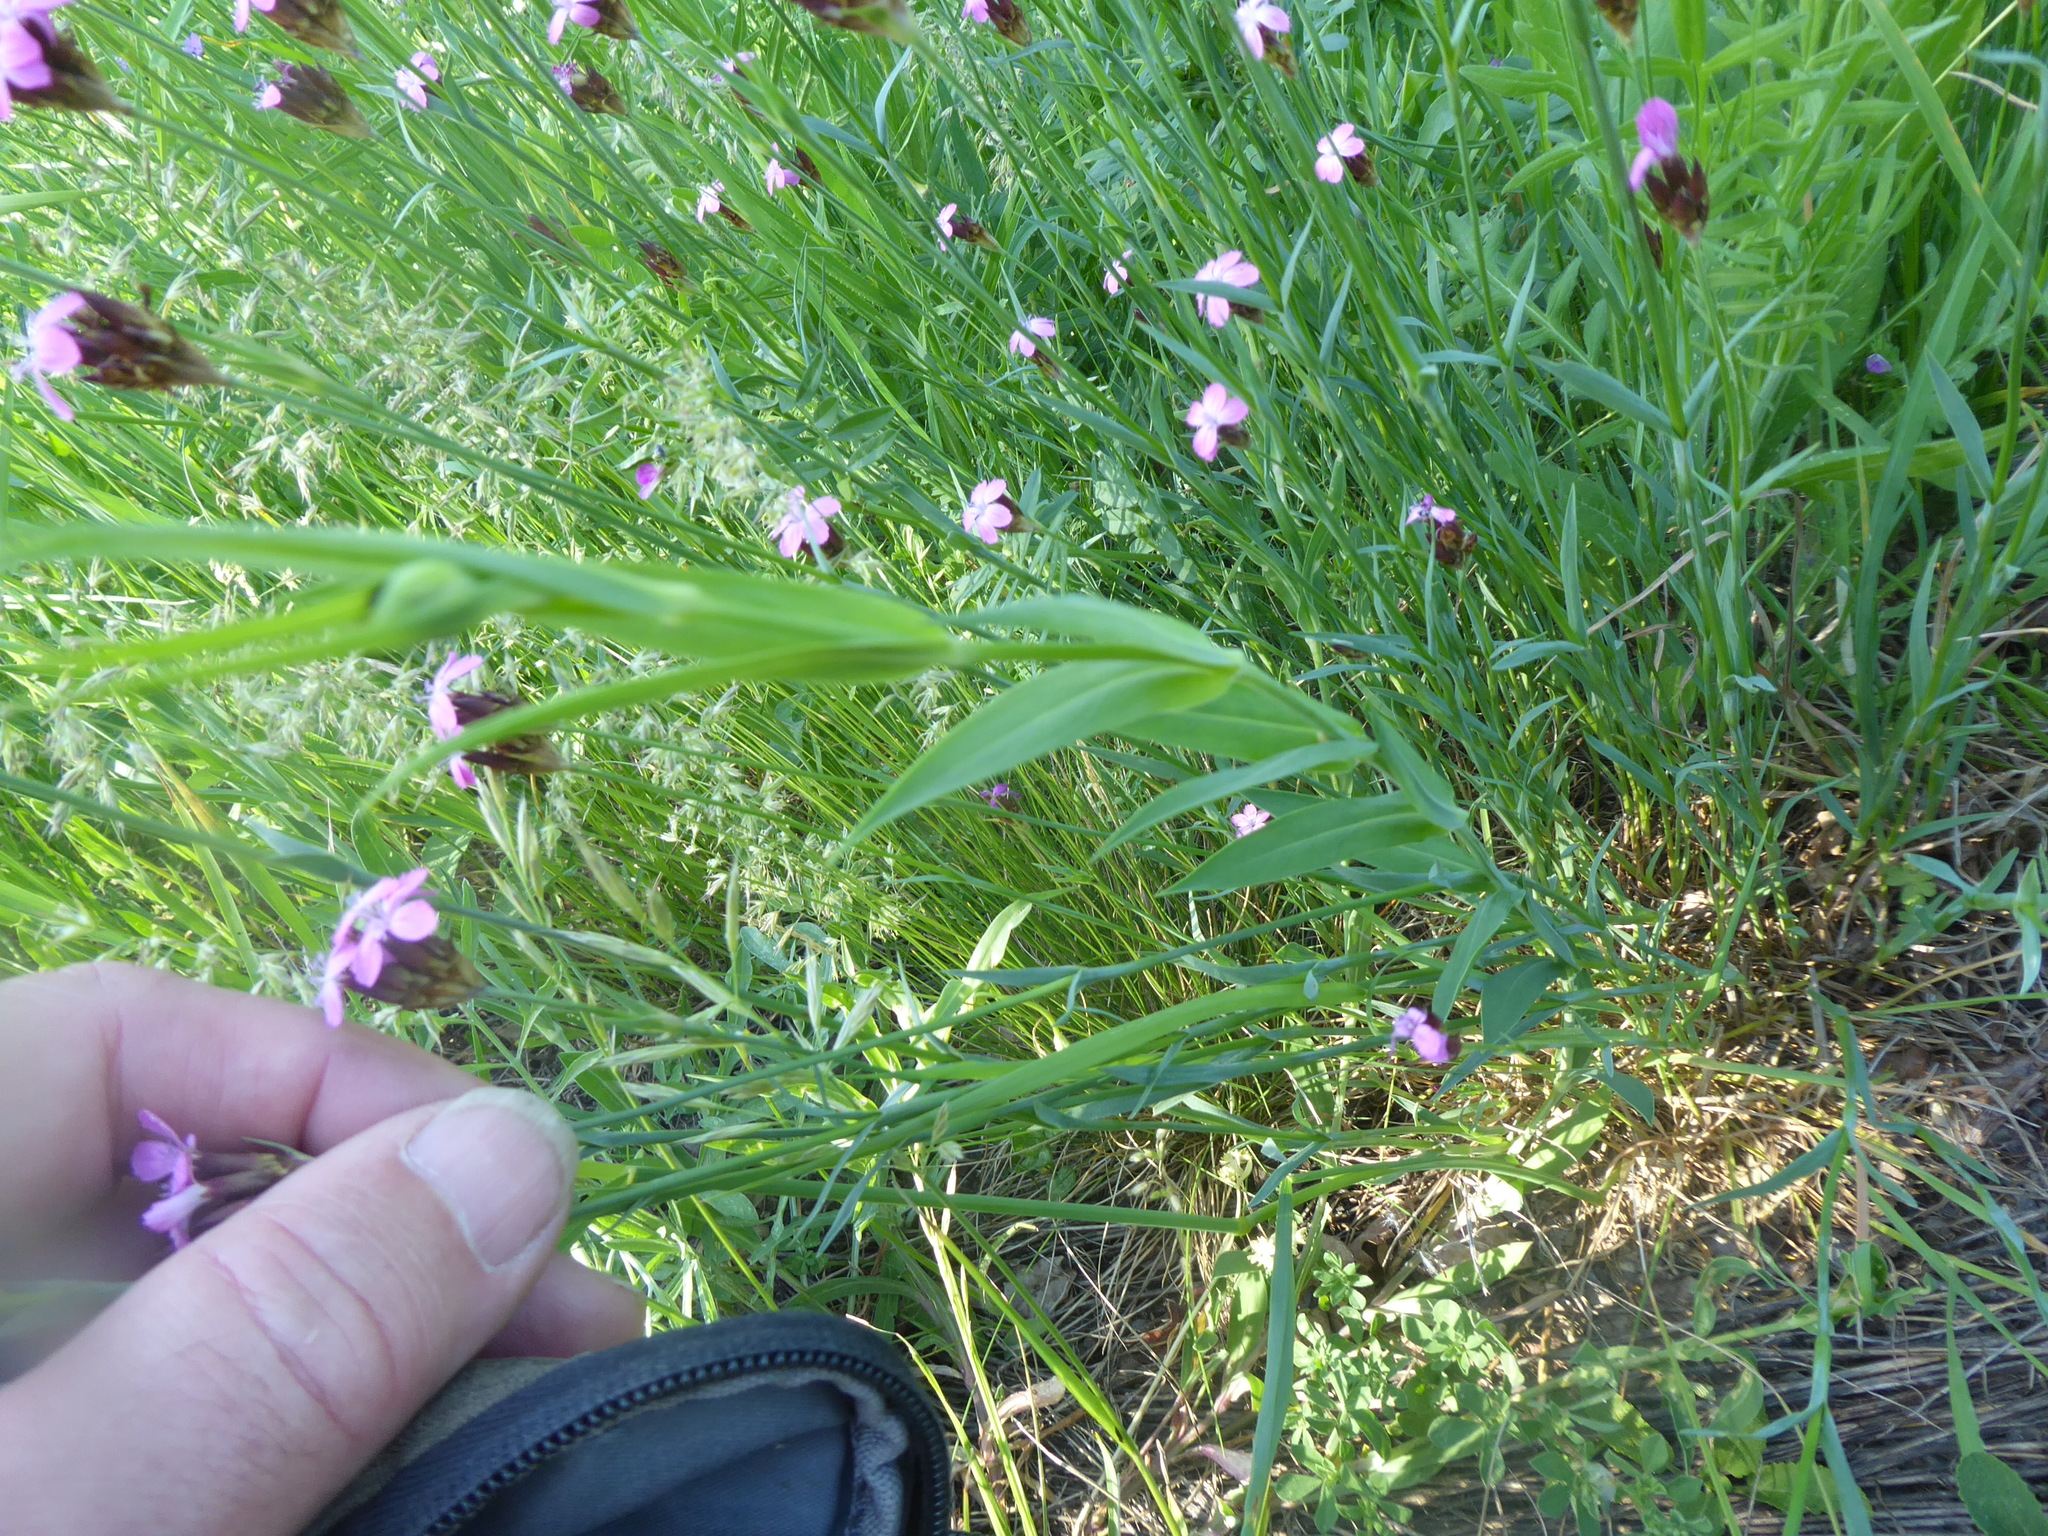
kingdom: Plantae
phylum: Tracheophyta
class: Magnoliopsida
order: Caryophyllales
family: Caryophyllaceae
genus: Dianthus
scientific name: Dianthus pontederae
